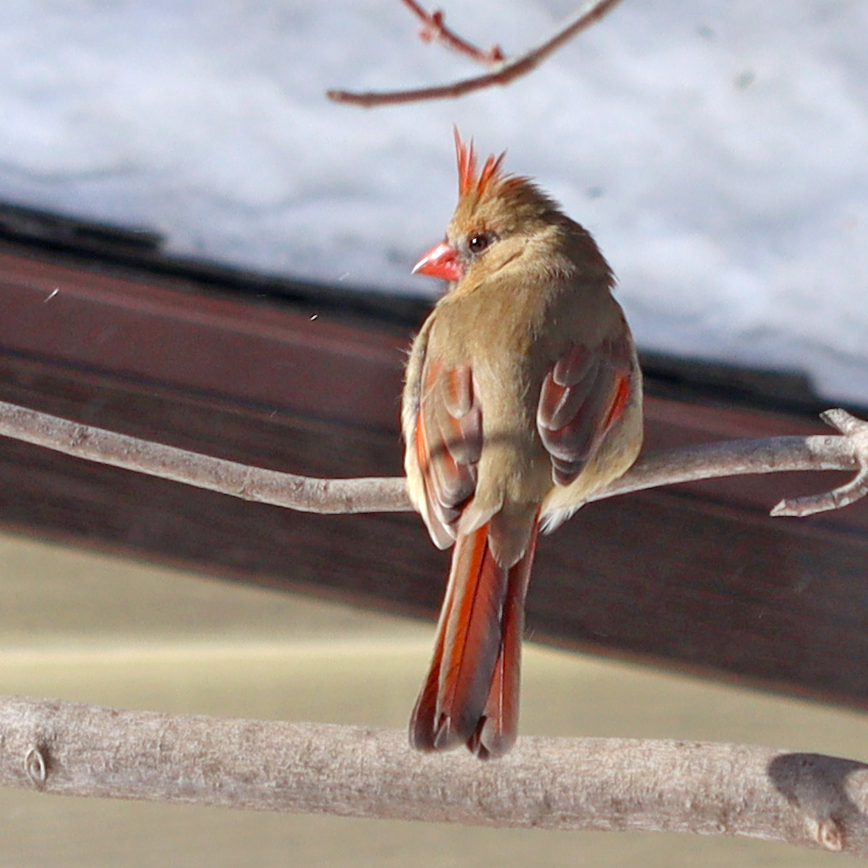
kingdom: Animalia
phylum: Chordata
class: Aves
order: Passeriformes
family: Cardinalidae
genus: Cardinalis
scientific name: Cardinalis cardinalis
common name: Northern cardinal
